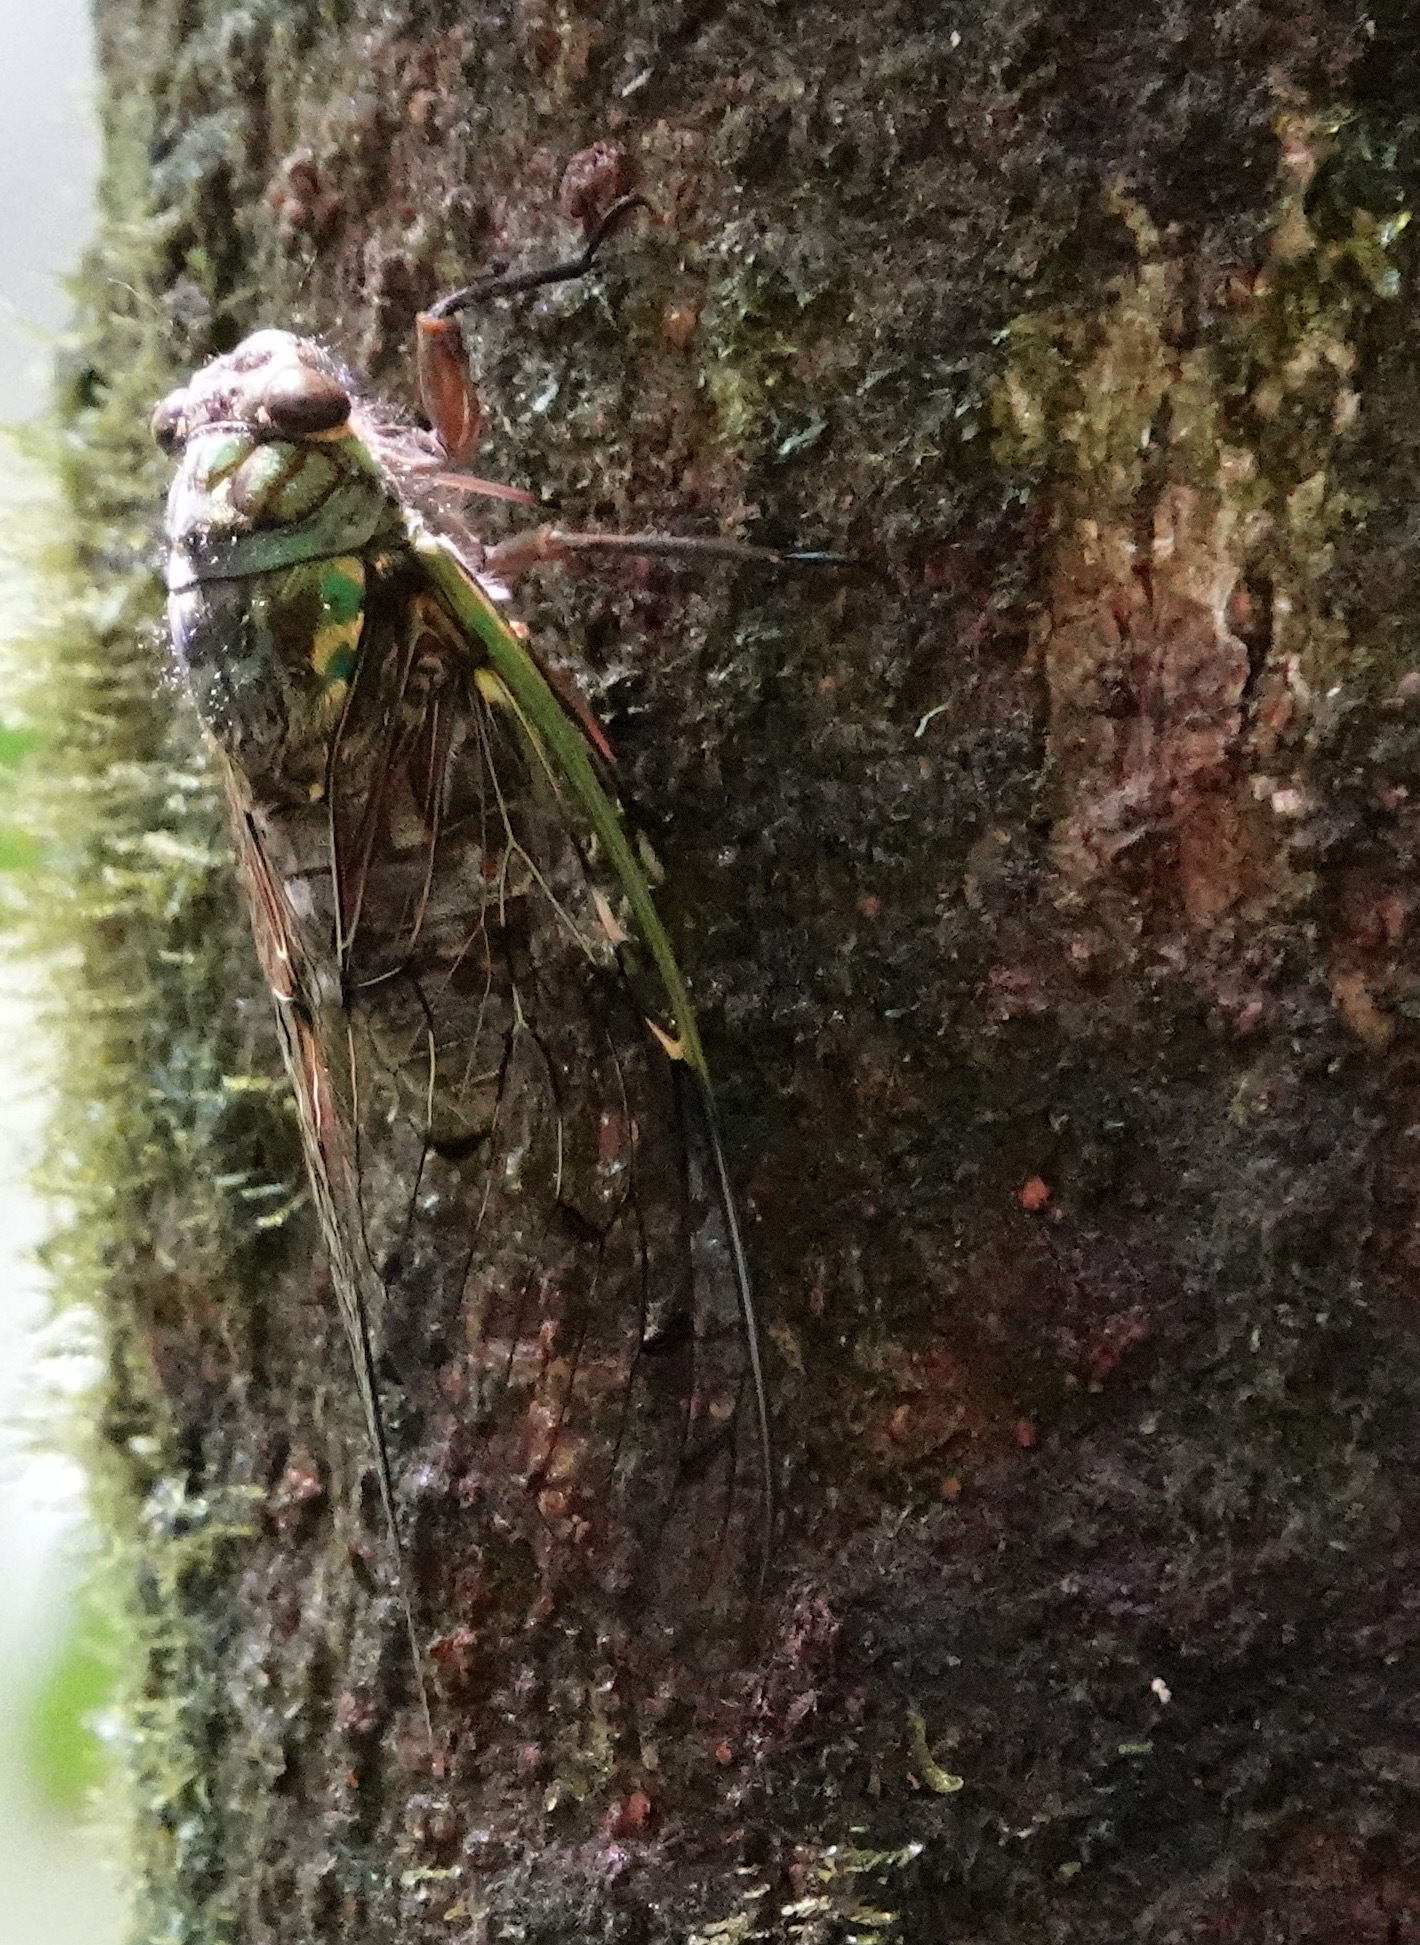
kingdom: Animalia
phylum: Arthropoda
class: Insecta
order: Hemiptera
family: Cicadidae
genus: Pomponia
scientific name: Pomponia rajah
